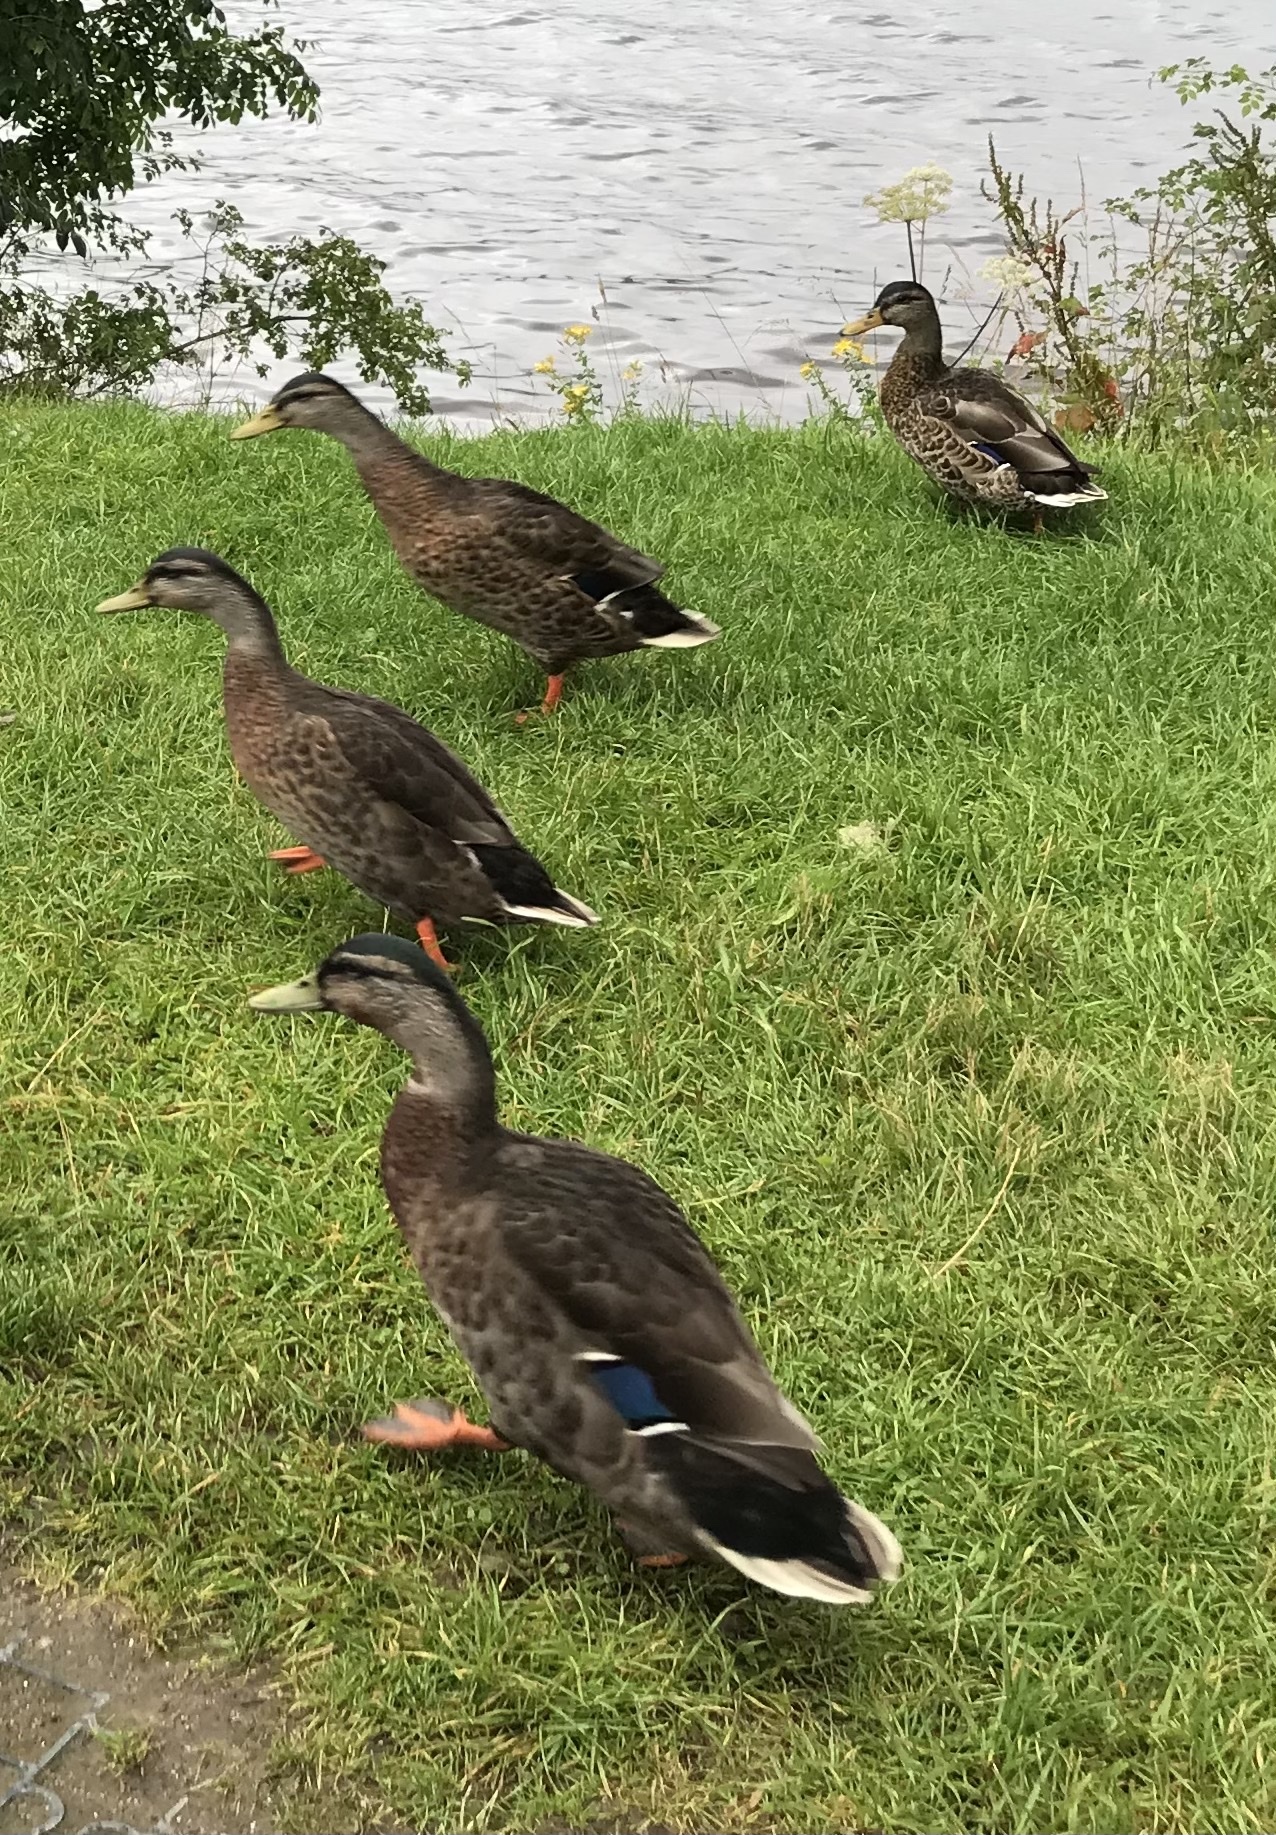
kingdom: Animalia
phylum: Chordata
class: Aves
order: Anseriformes
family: Anatidae
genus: Anas
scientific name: Anas platyrhynchos
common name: Mallard
